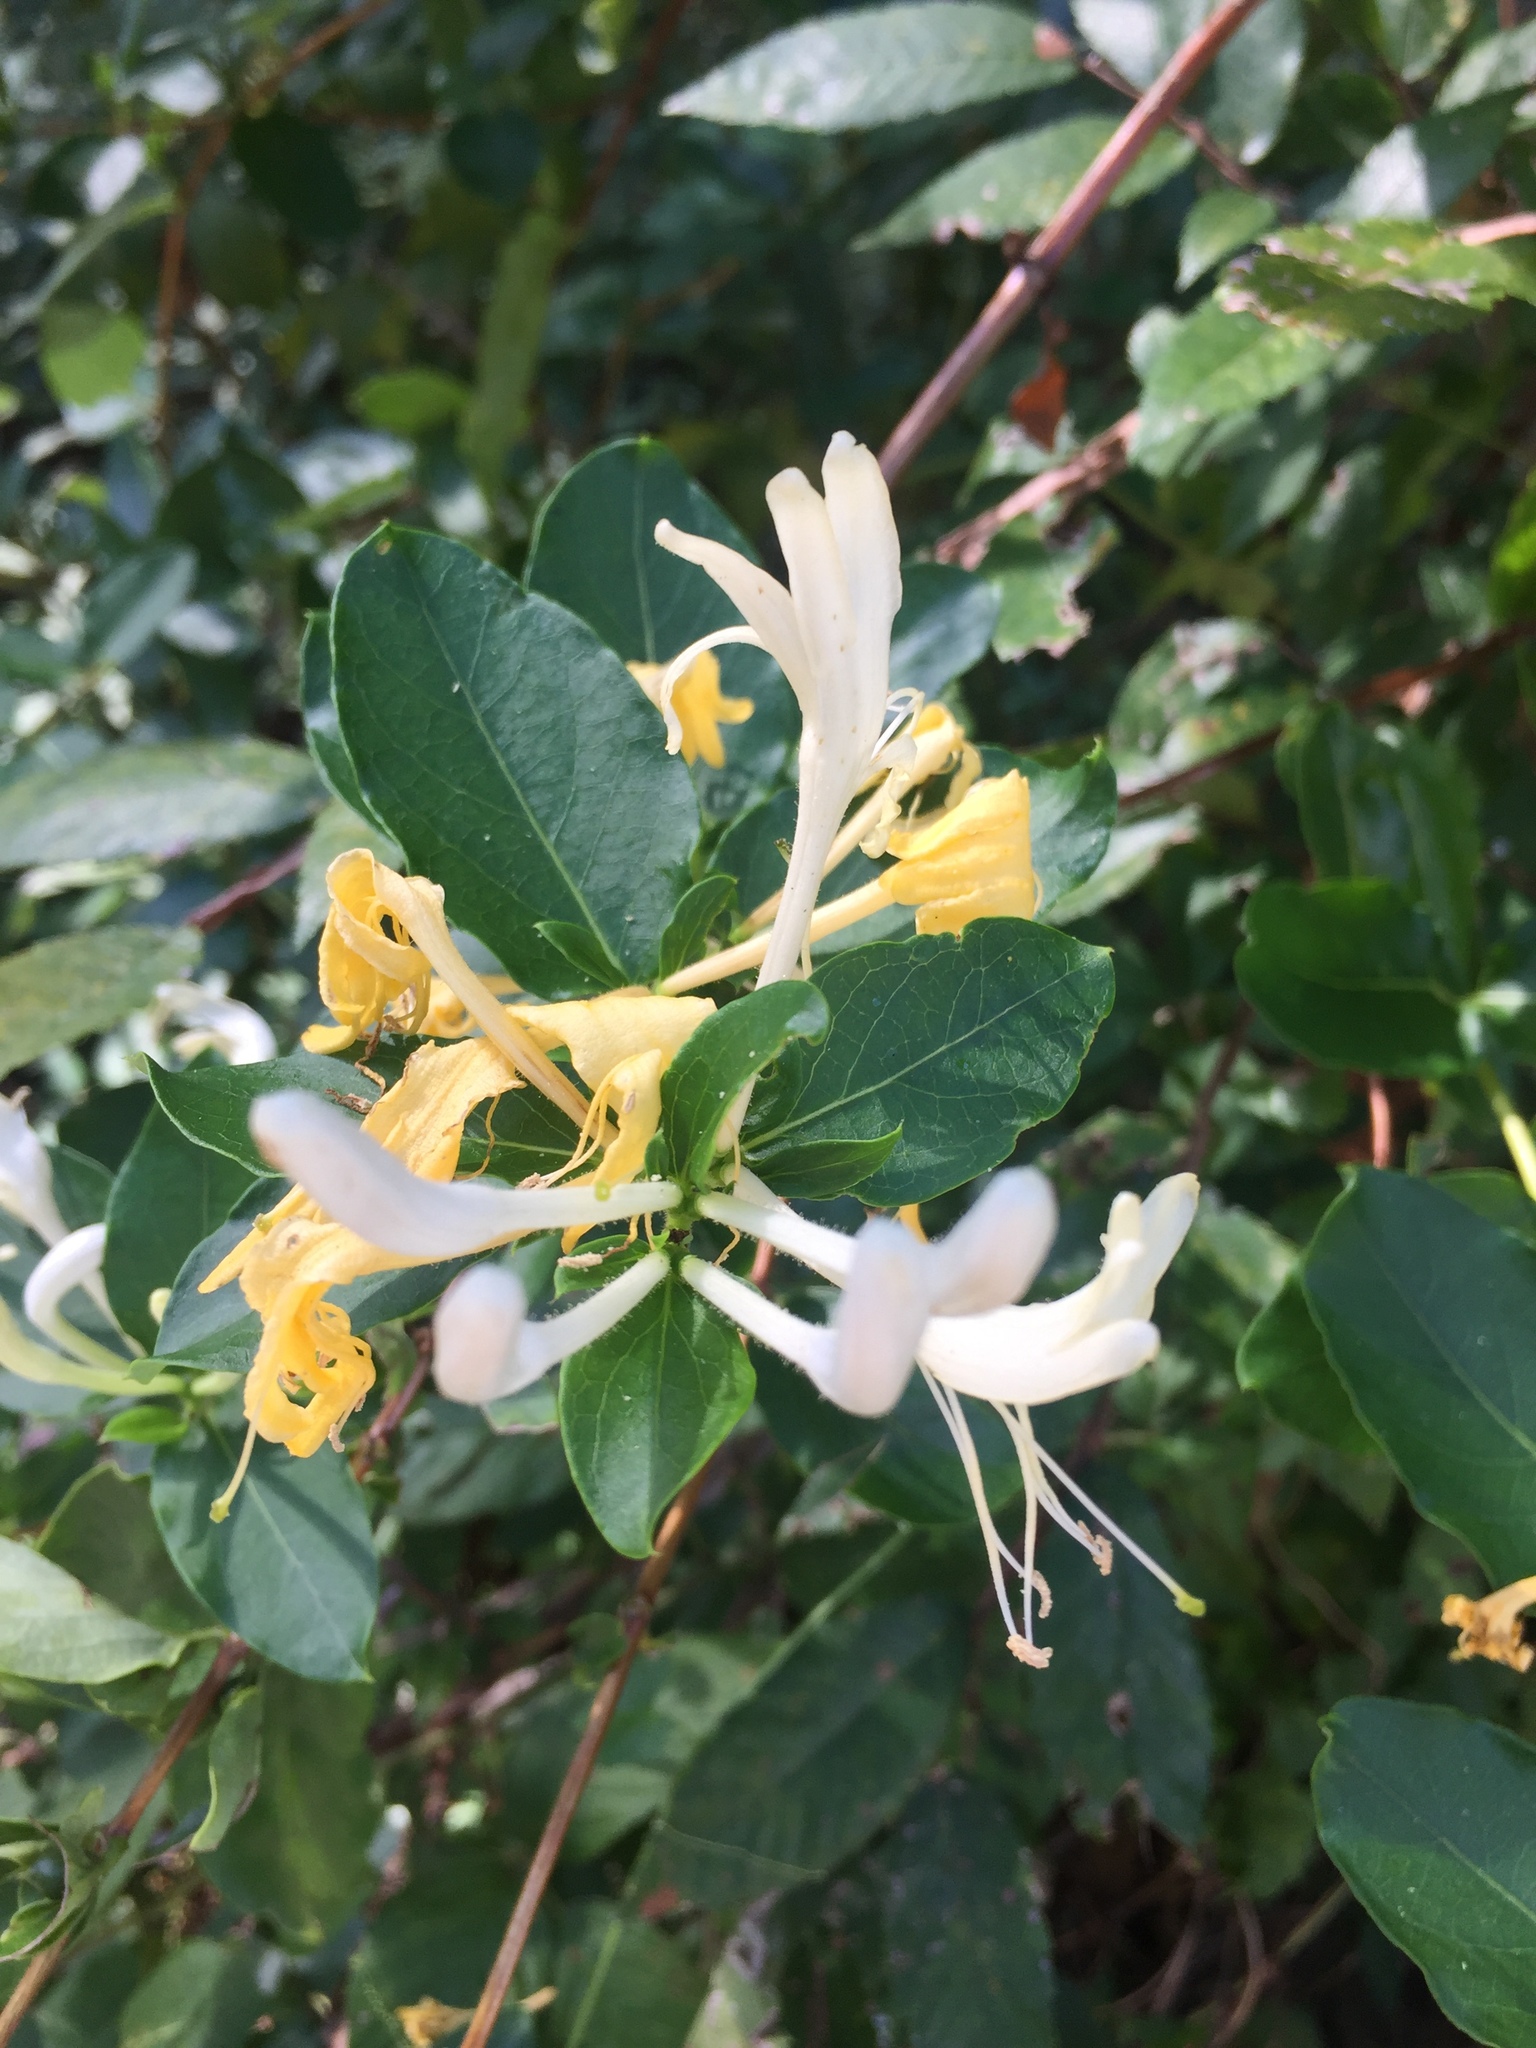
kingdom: Plantae
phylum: Tracheophyta
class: Magnoliopsida
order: Dipsacales
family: Caprifoliaceae
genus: Lonicera
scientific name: Lonicera japonica
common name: Japanese honeysuckle
